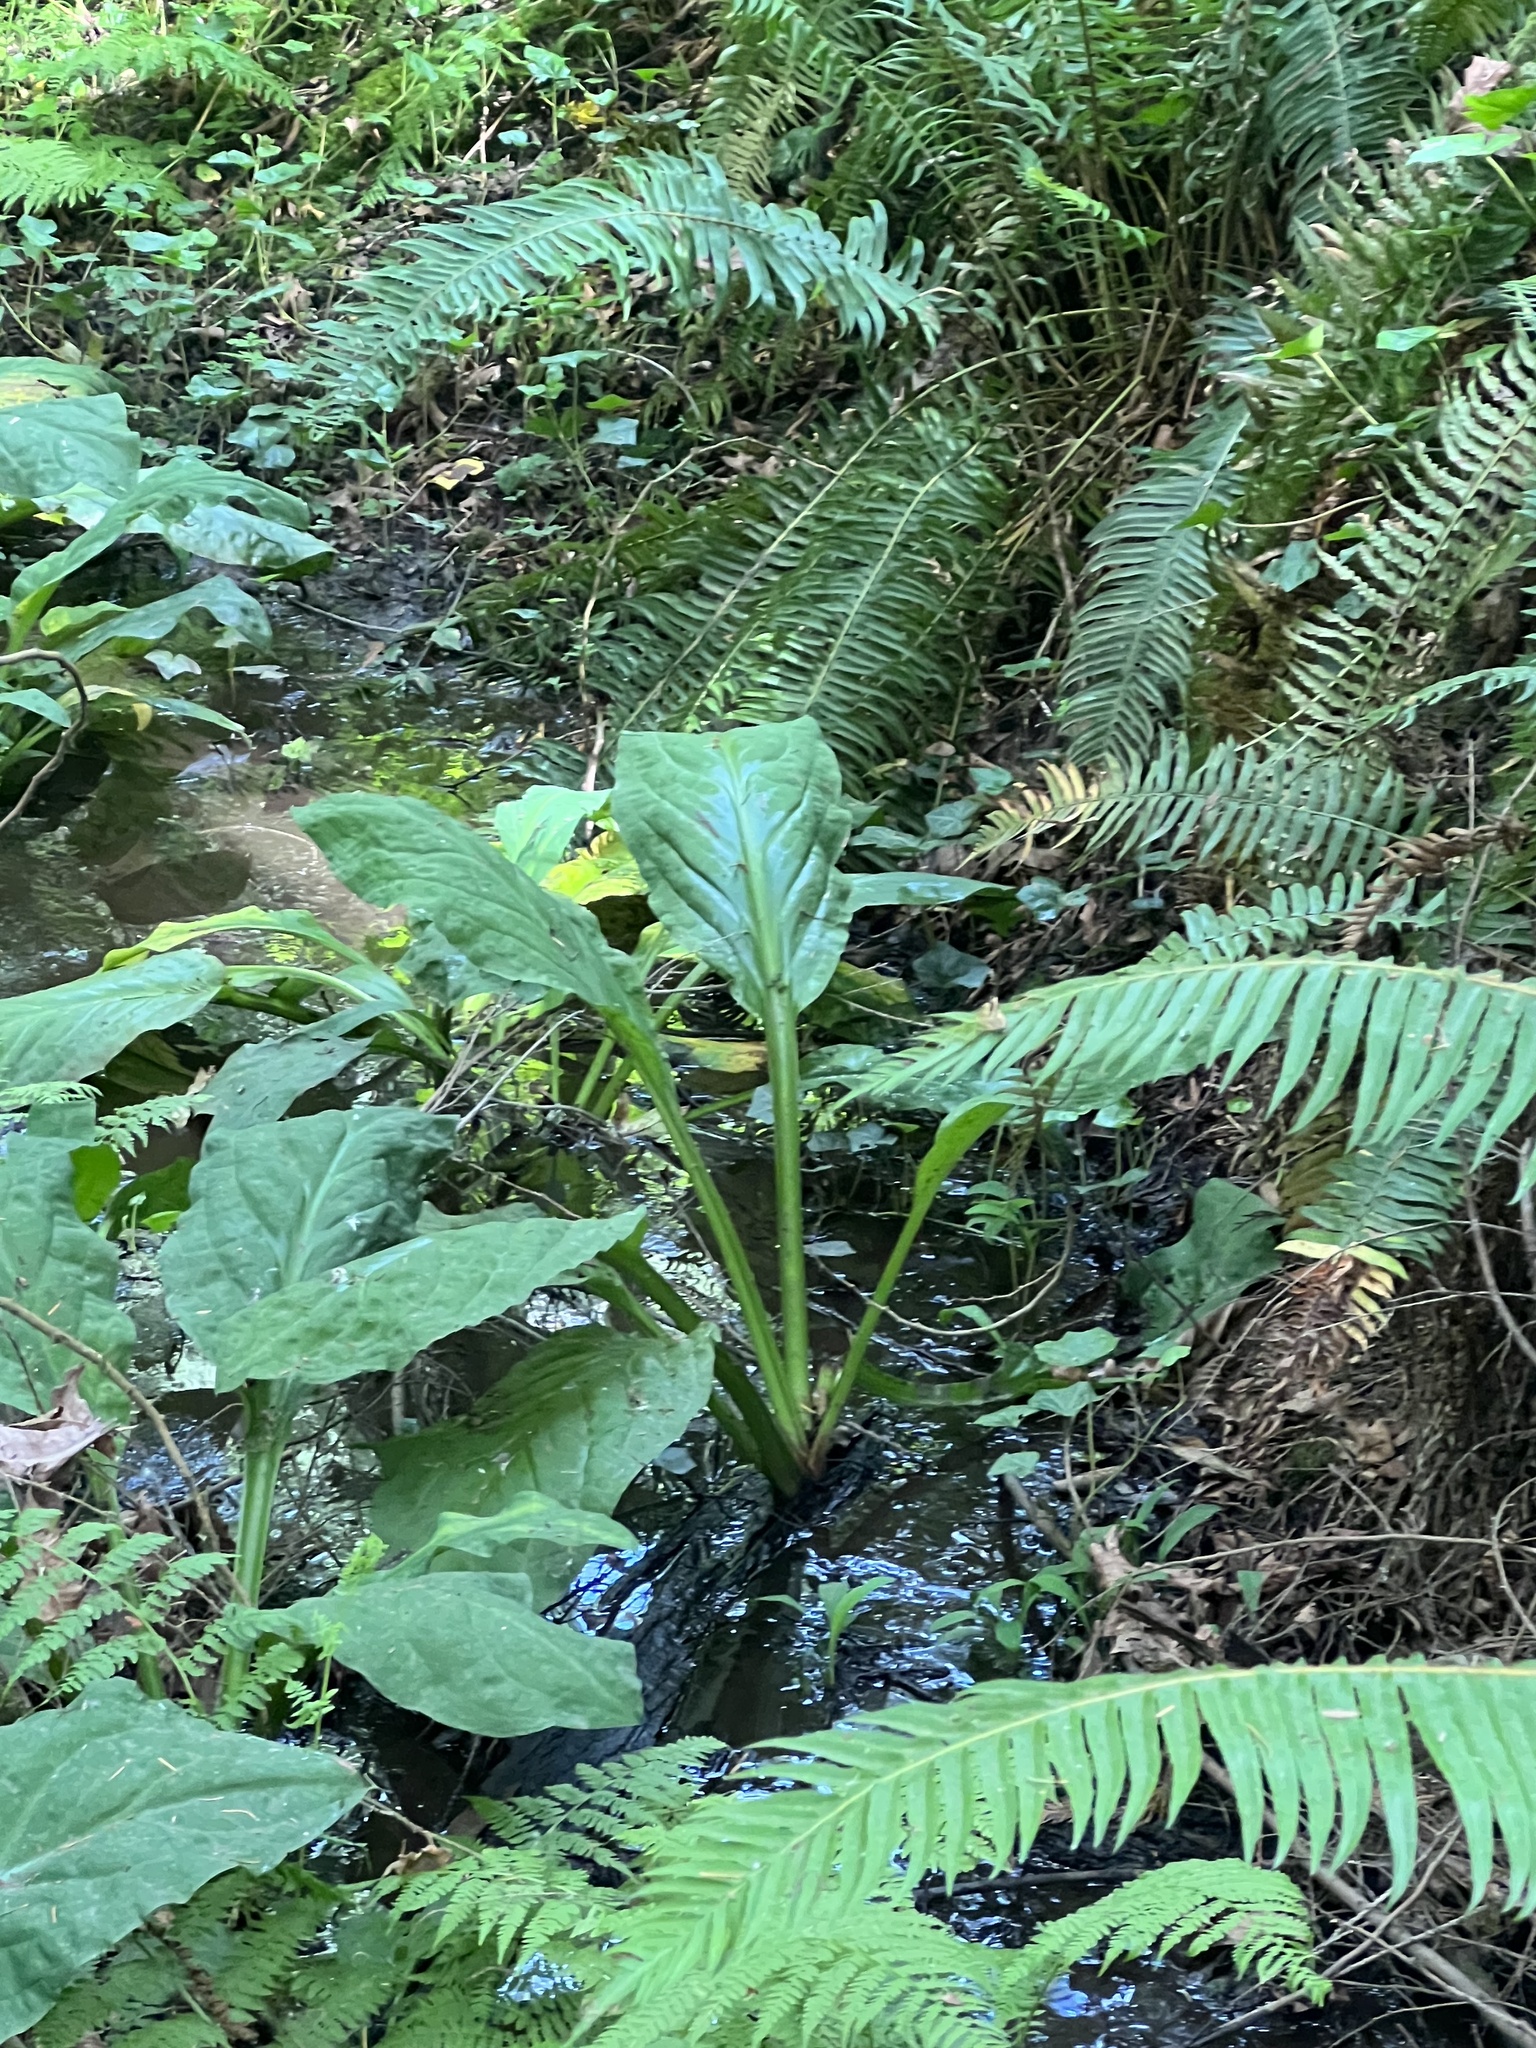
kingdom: Plantae
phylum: Tracheophyta
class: Liliopsida
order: Alismatales
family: Araceae
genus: Lysichiton
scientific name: Lysichiton americanus
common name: American skunk cabbage
